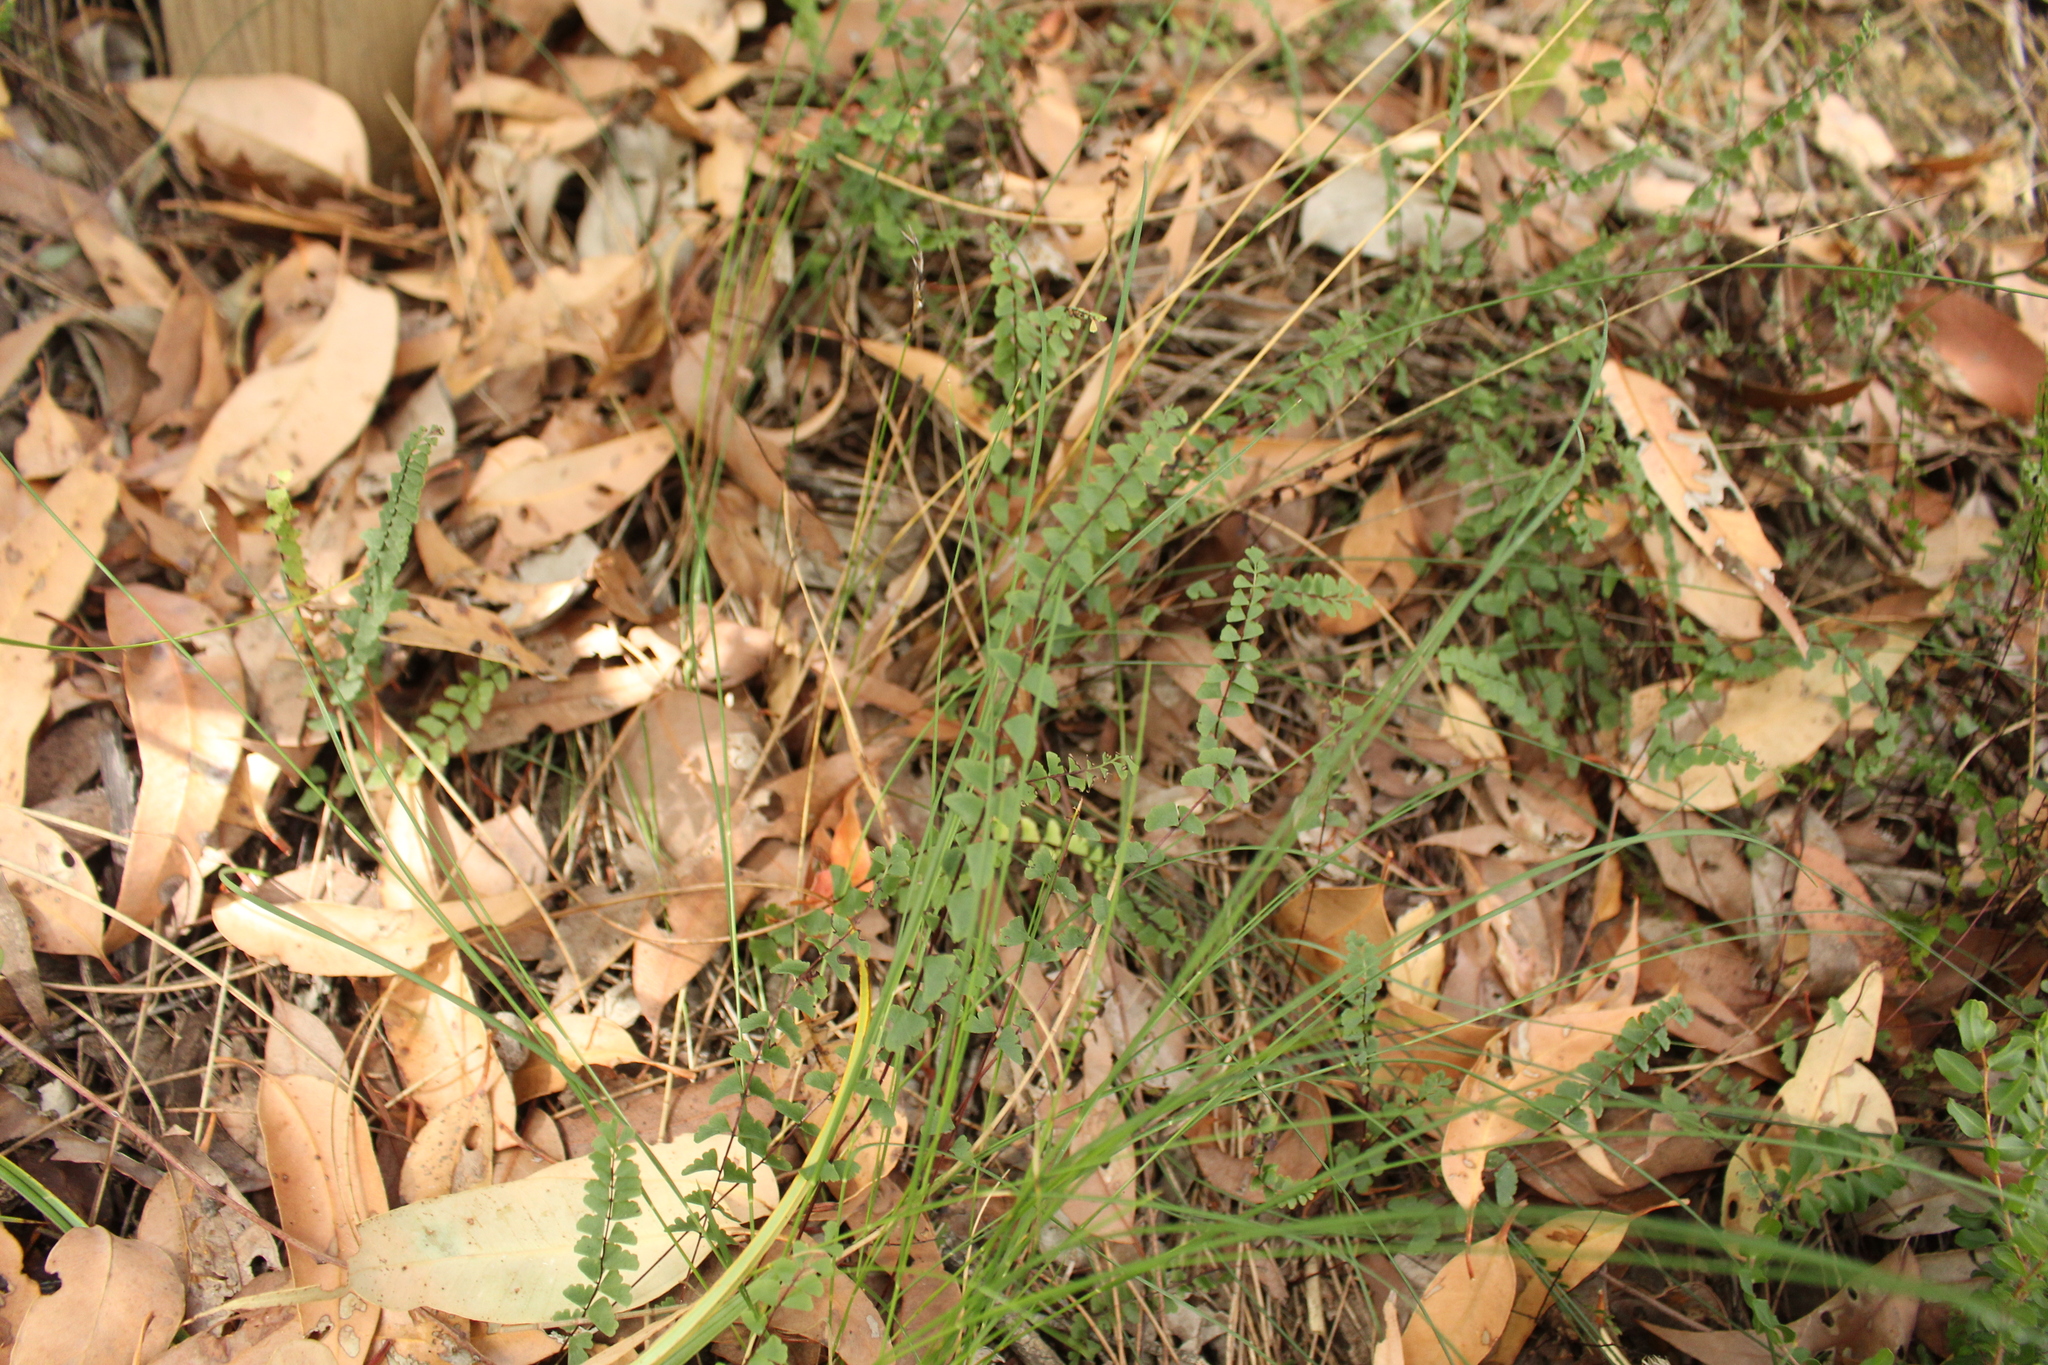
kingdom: Plantae
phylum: Tracheophyta
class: Polypodiopsida
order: Polypodiales
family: Lindsaeaceae
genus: Lindsaea
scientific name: Lindsaea linearis
